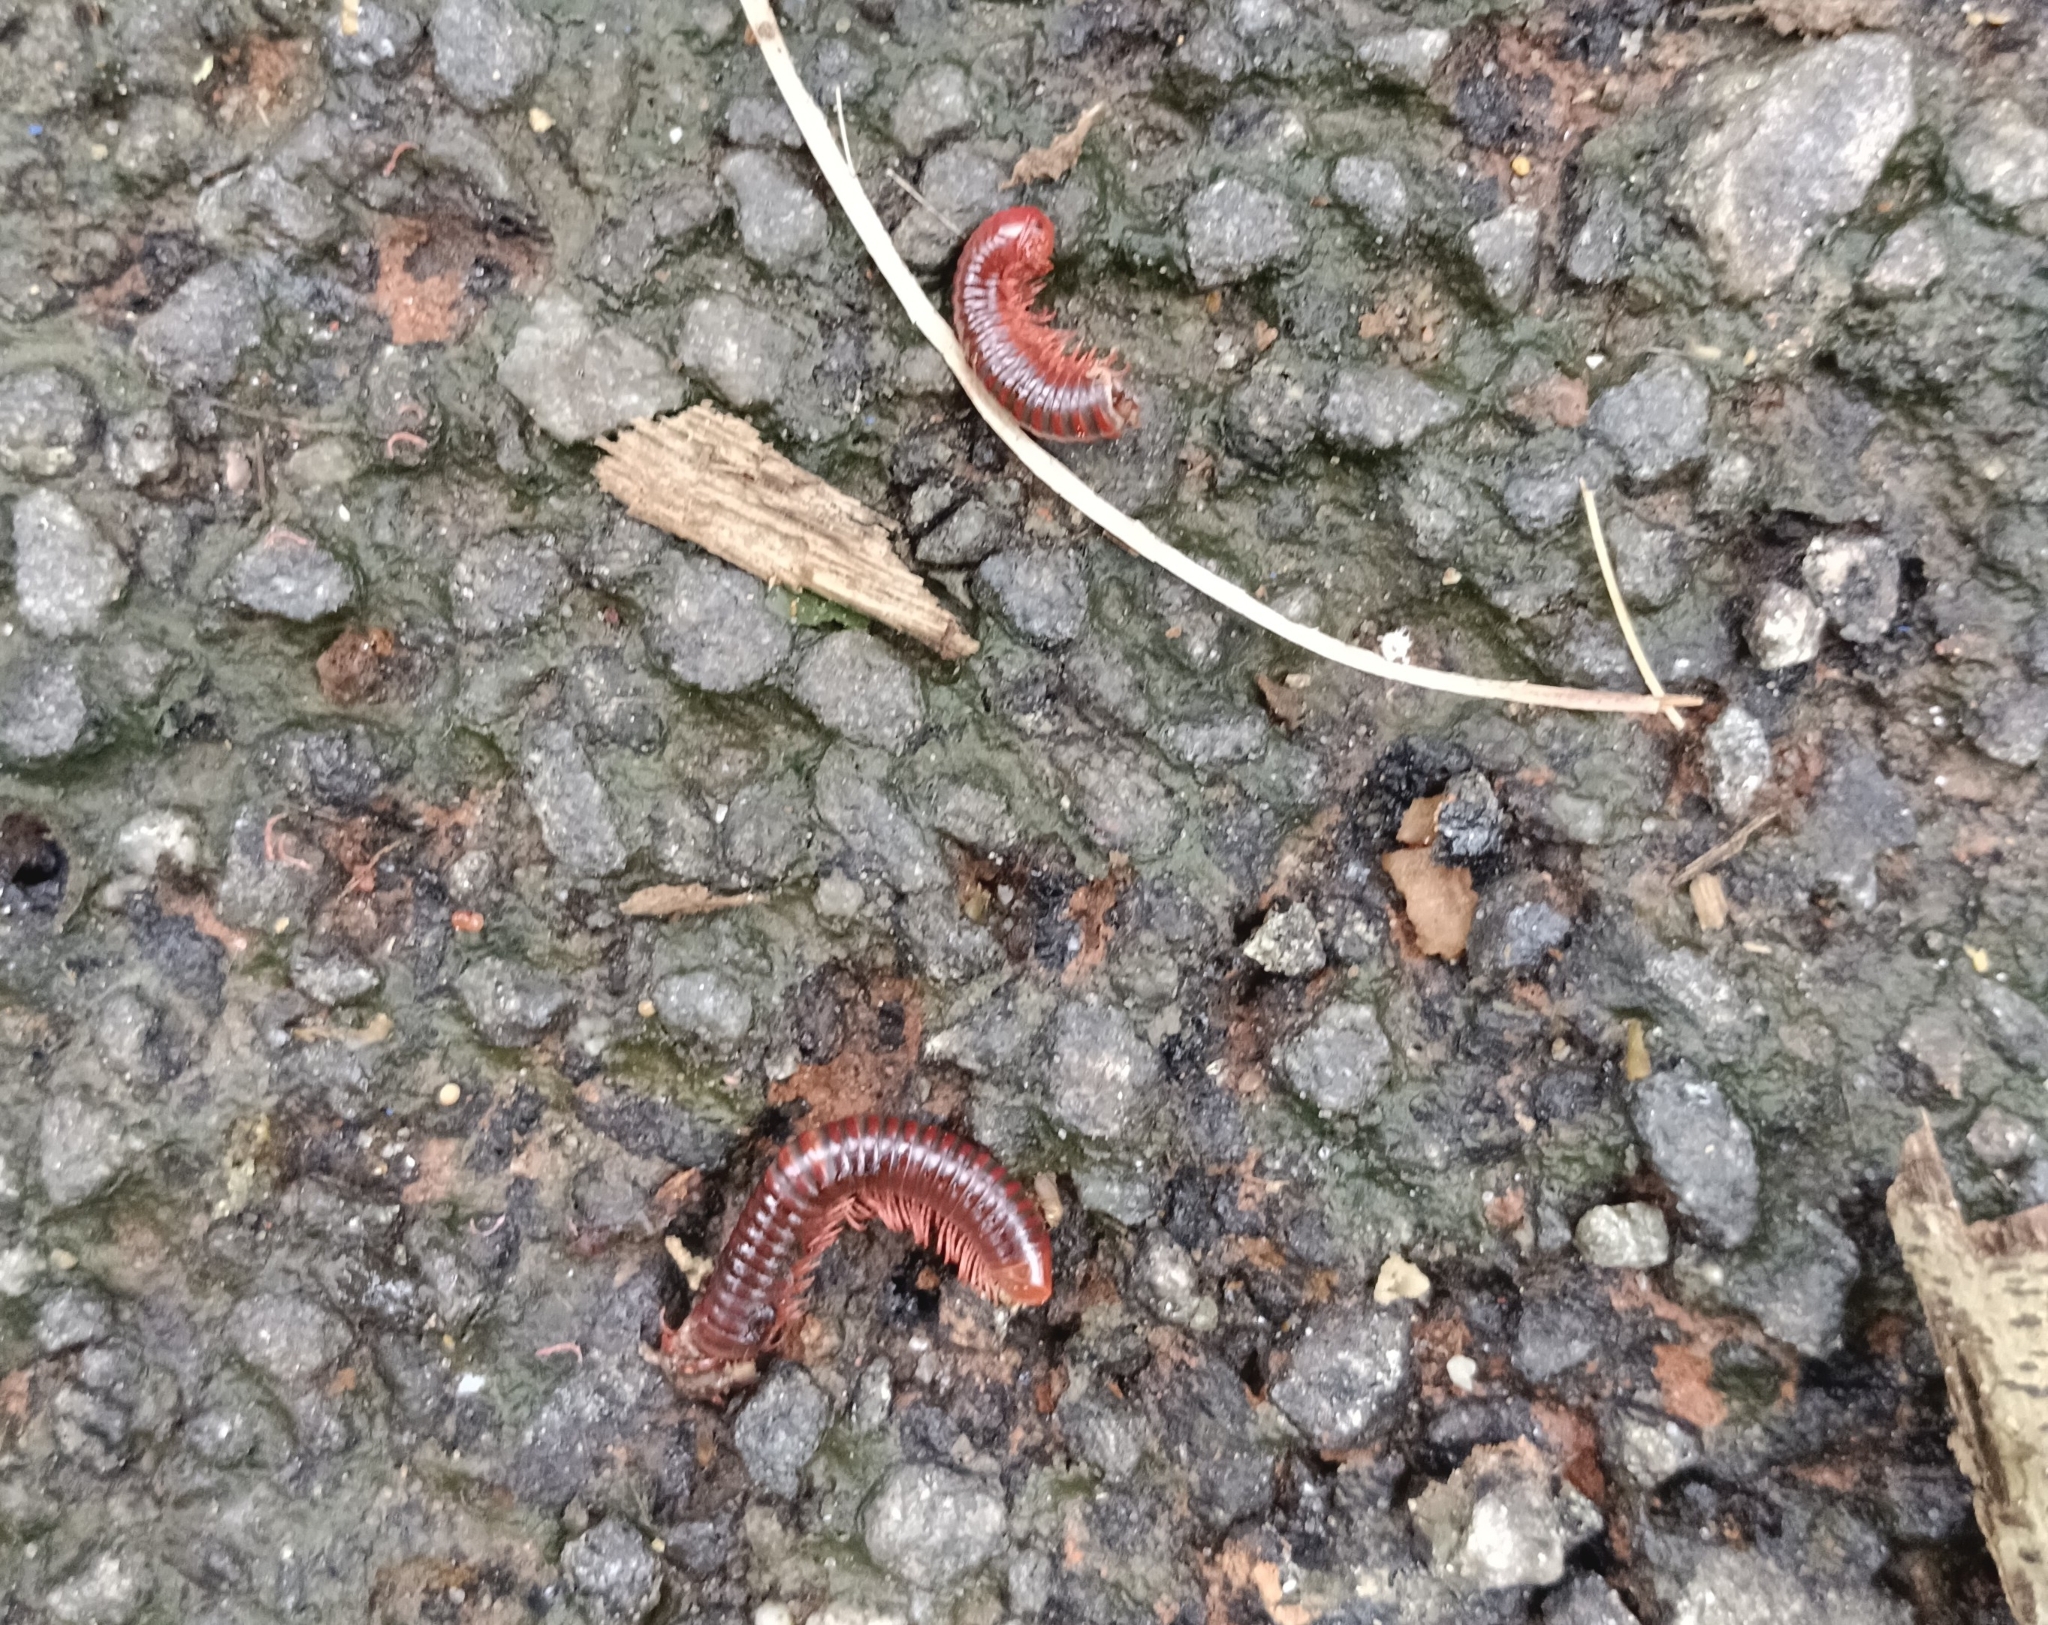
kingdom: Animalia
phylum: Arthropoda
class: Diplopoda
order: Spirobolida
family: Pachybolidae
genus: Trigoniulus
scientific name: Trigoniulus corallinus
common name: Millipede
